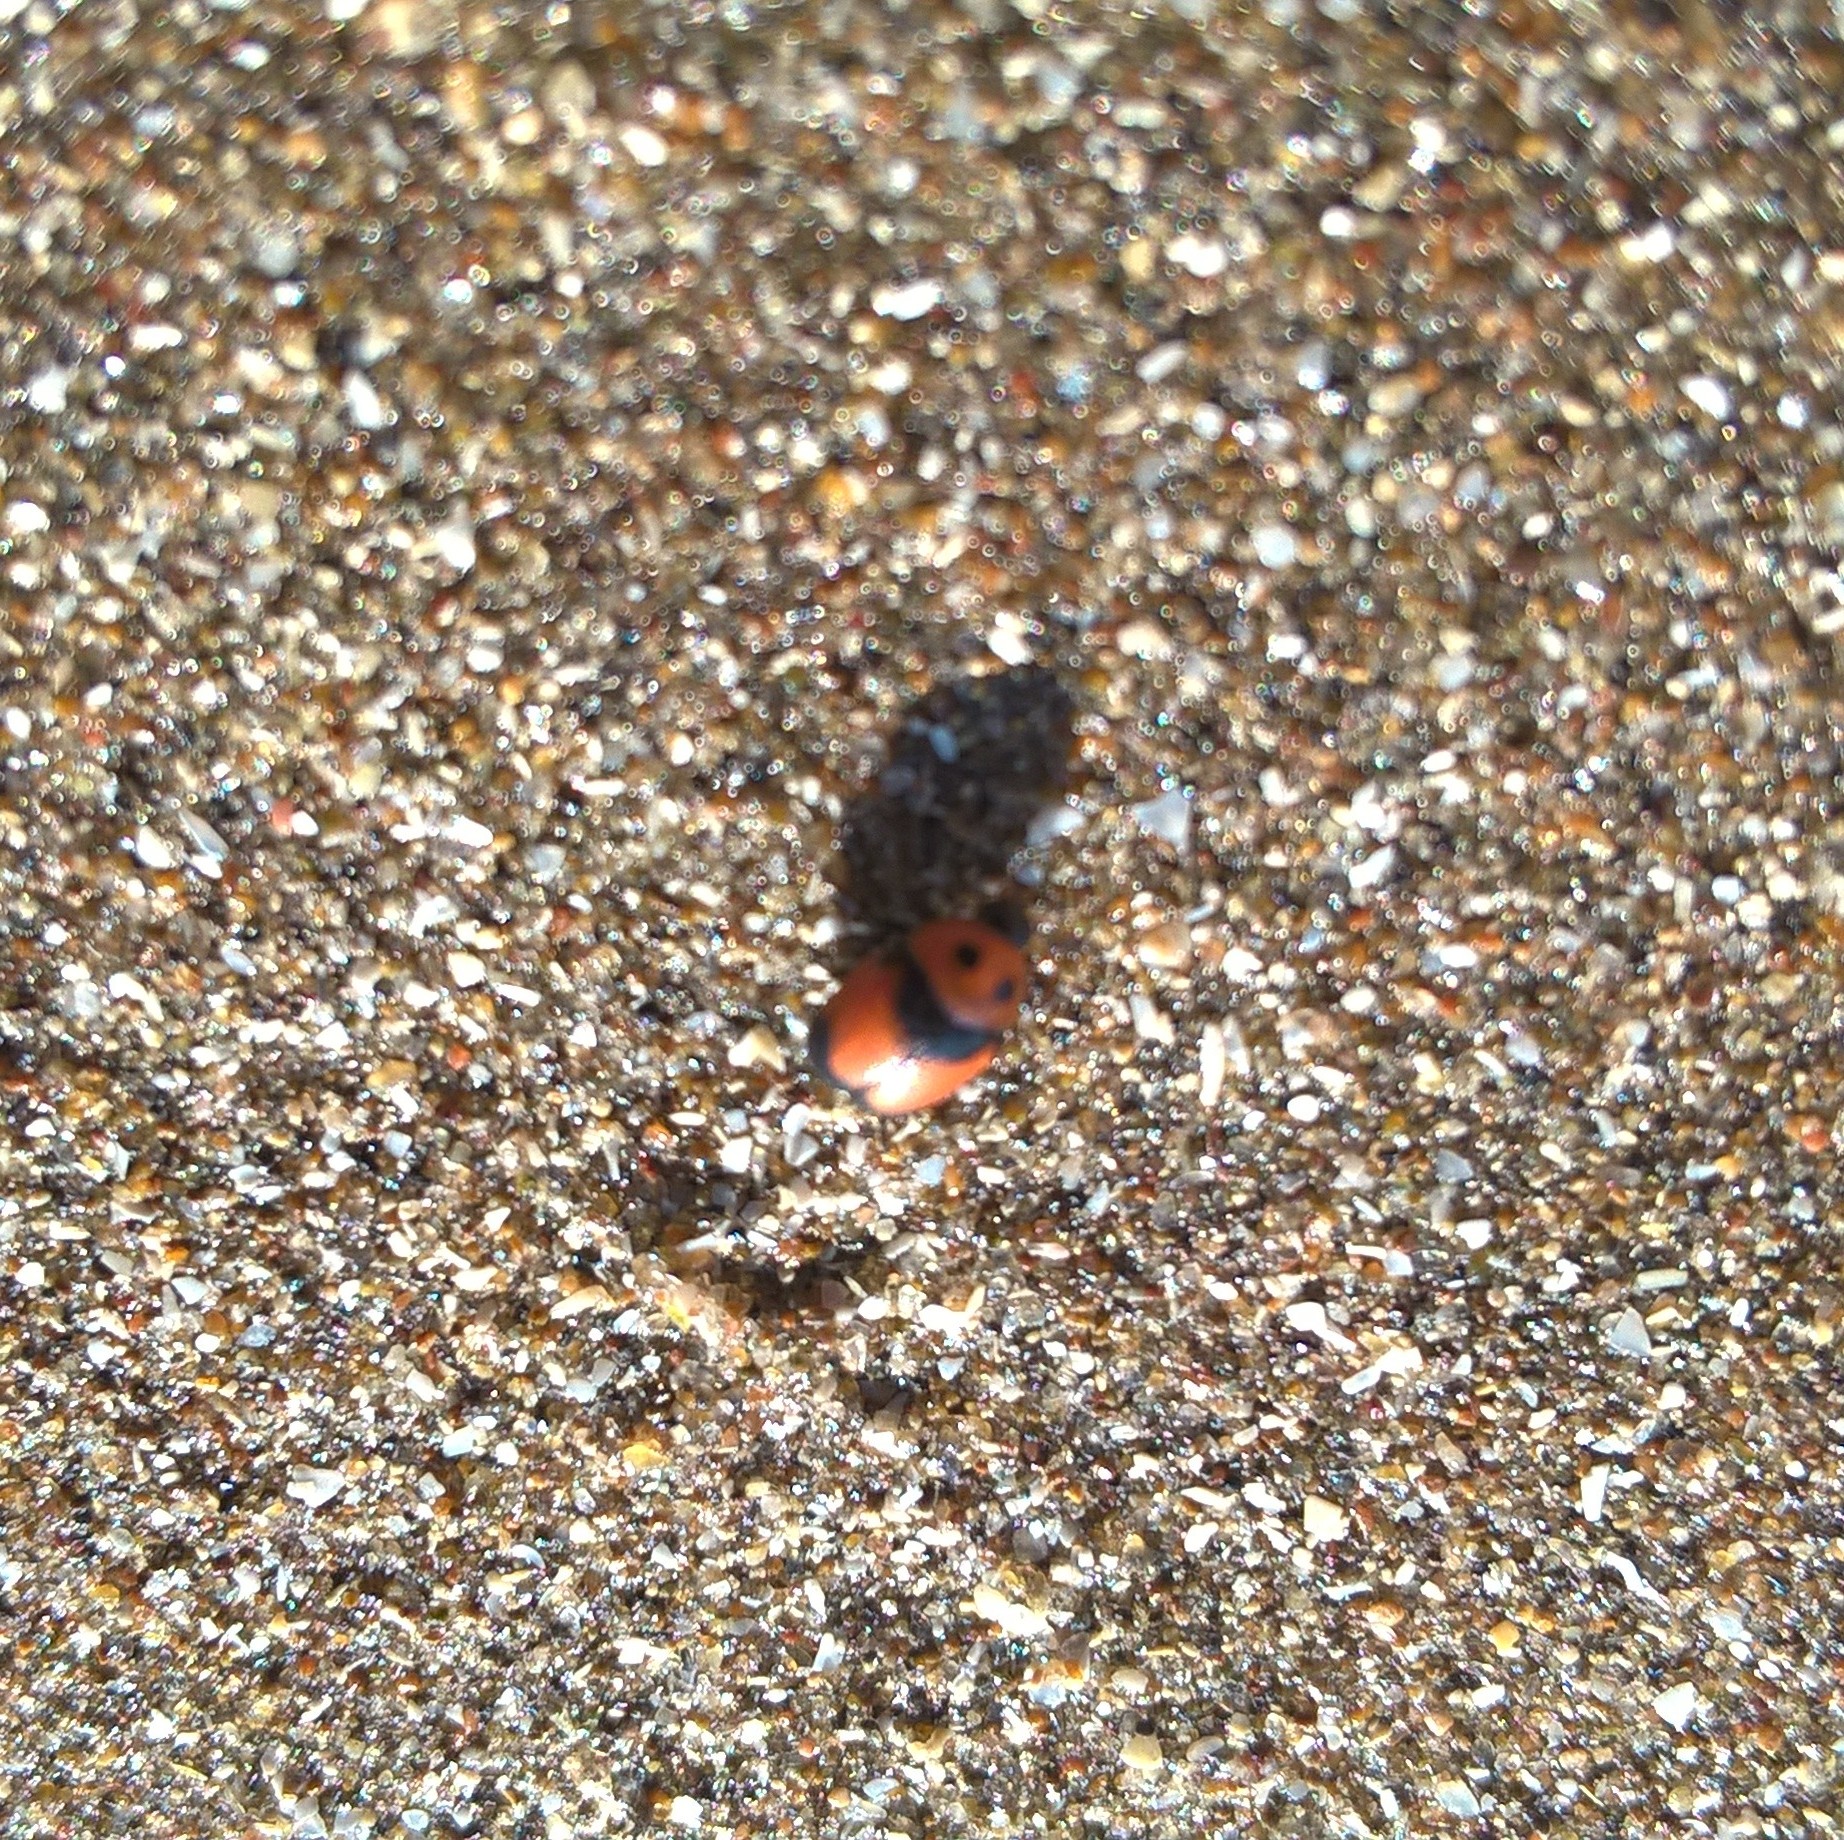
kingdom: Animalia
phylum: Arthropoda
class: Insecta
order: Coleoptera
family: Chrysomelidae
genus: Lexiphanes
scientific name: Lexiphanes
